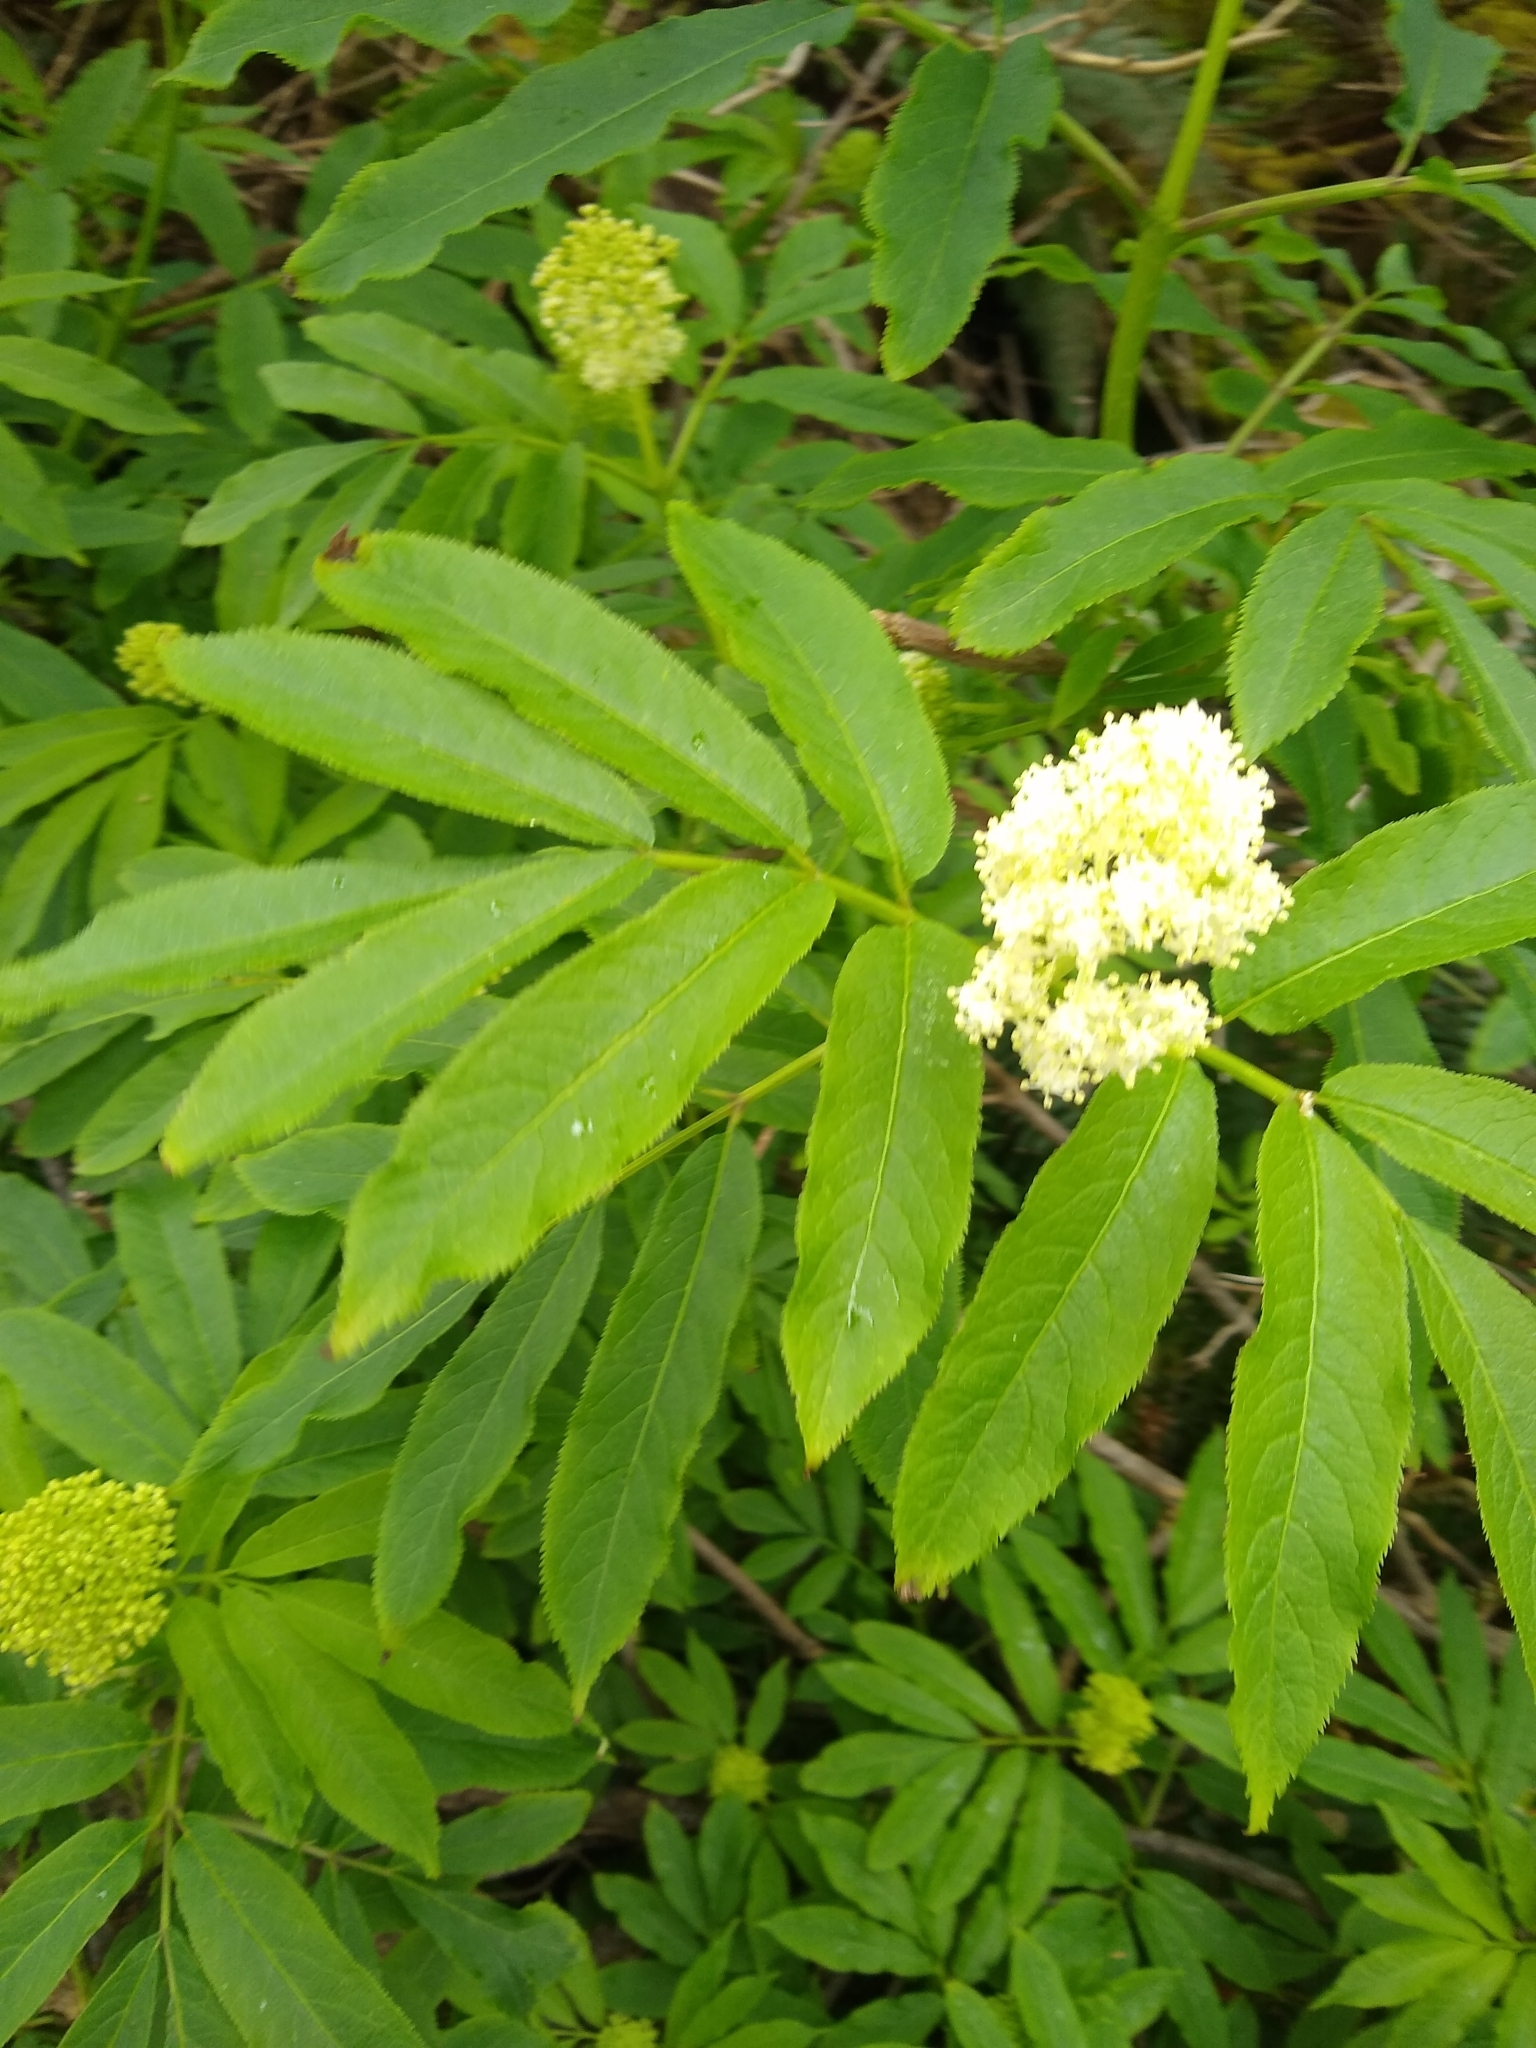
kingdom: Plantae
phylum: Tracheophyta
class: Magnoliopsida
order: Dipsacales
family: Viburnaceae
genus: Sambucus
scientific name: Sambucus racemosa
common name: Red-berried elder
